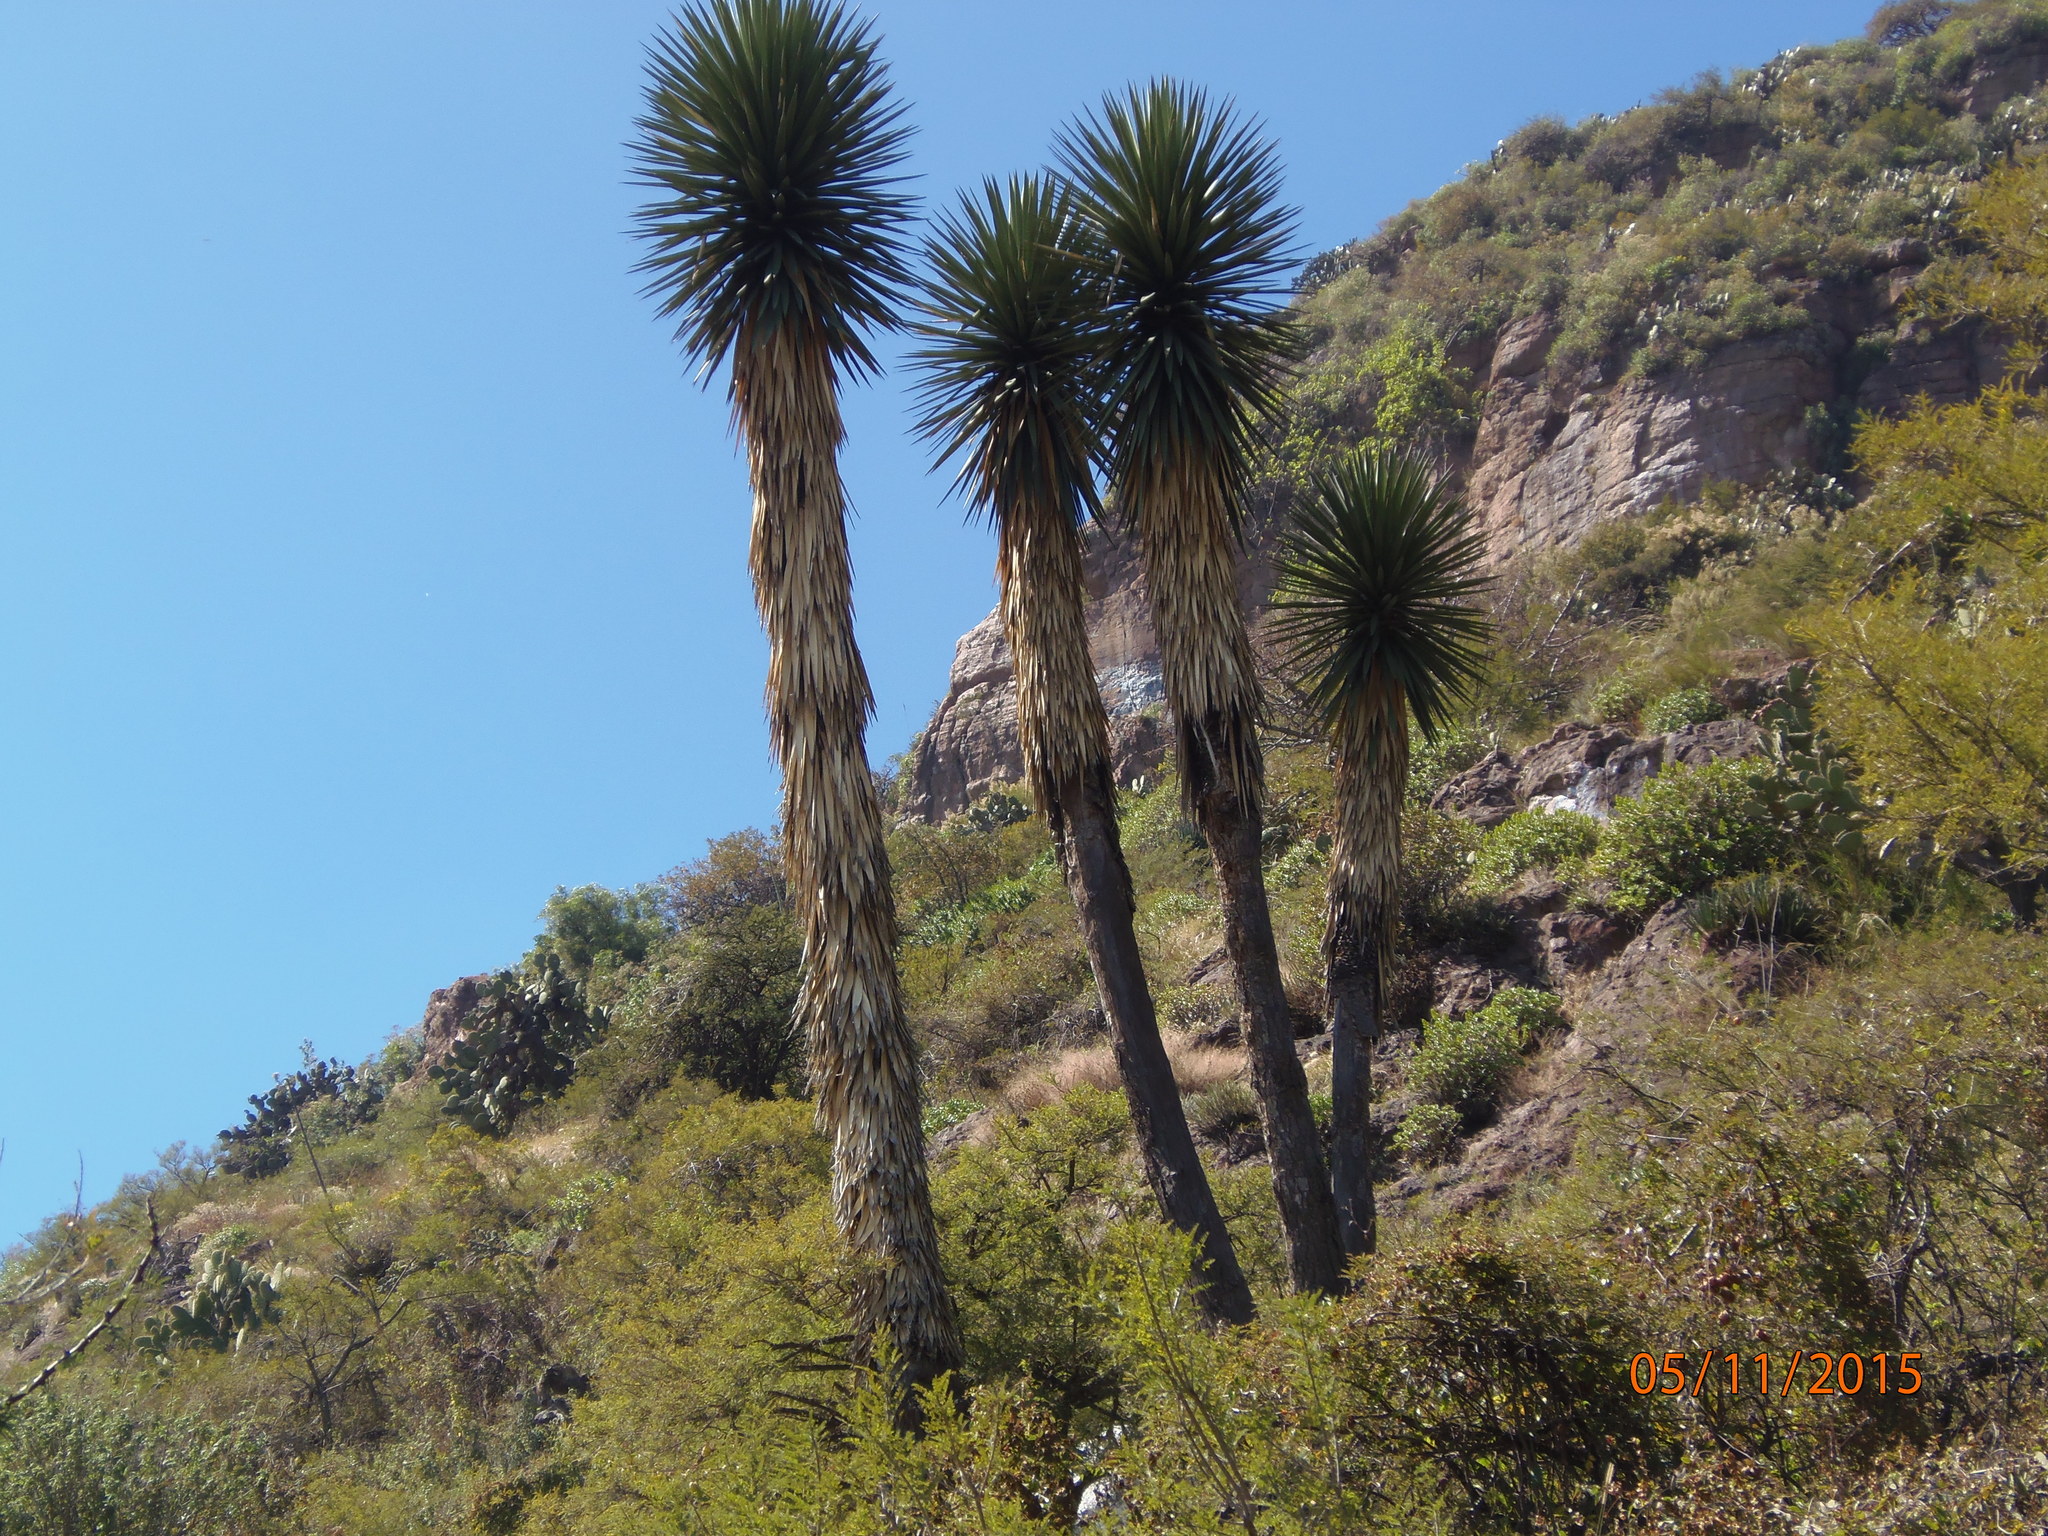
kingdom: Plantae
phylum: Tracheophyta
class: Liliopsida
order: Asparagales
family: Asparagaceae
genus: Yucca
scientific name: Yucca filifera
